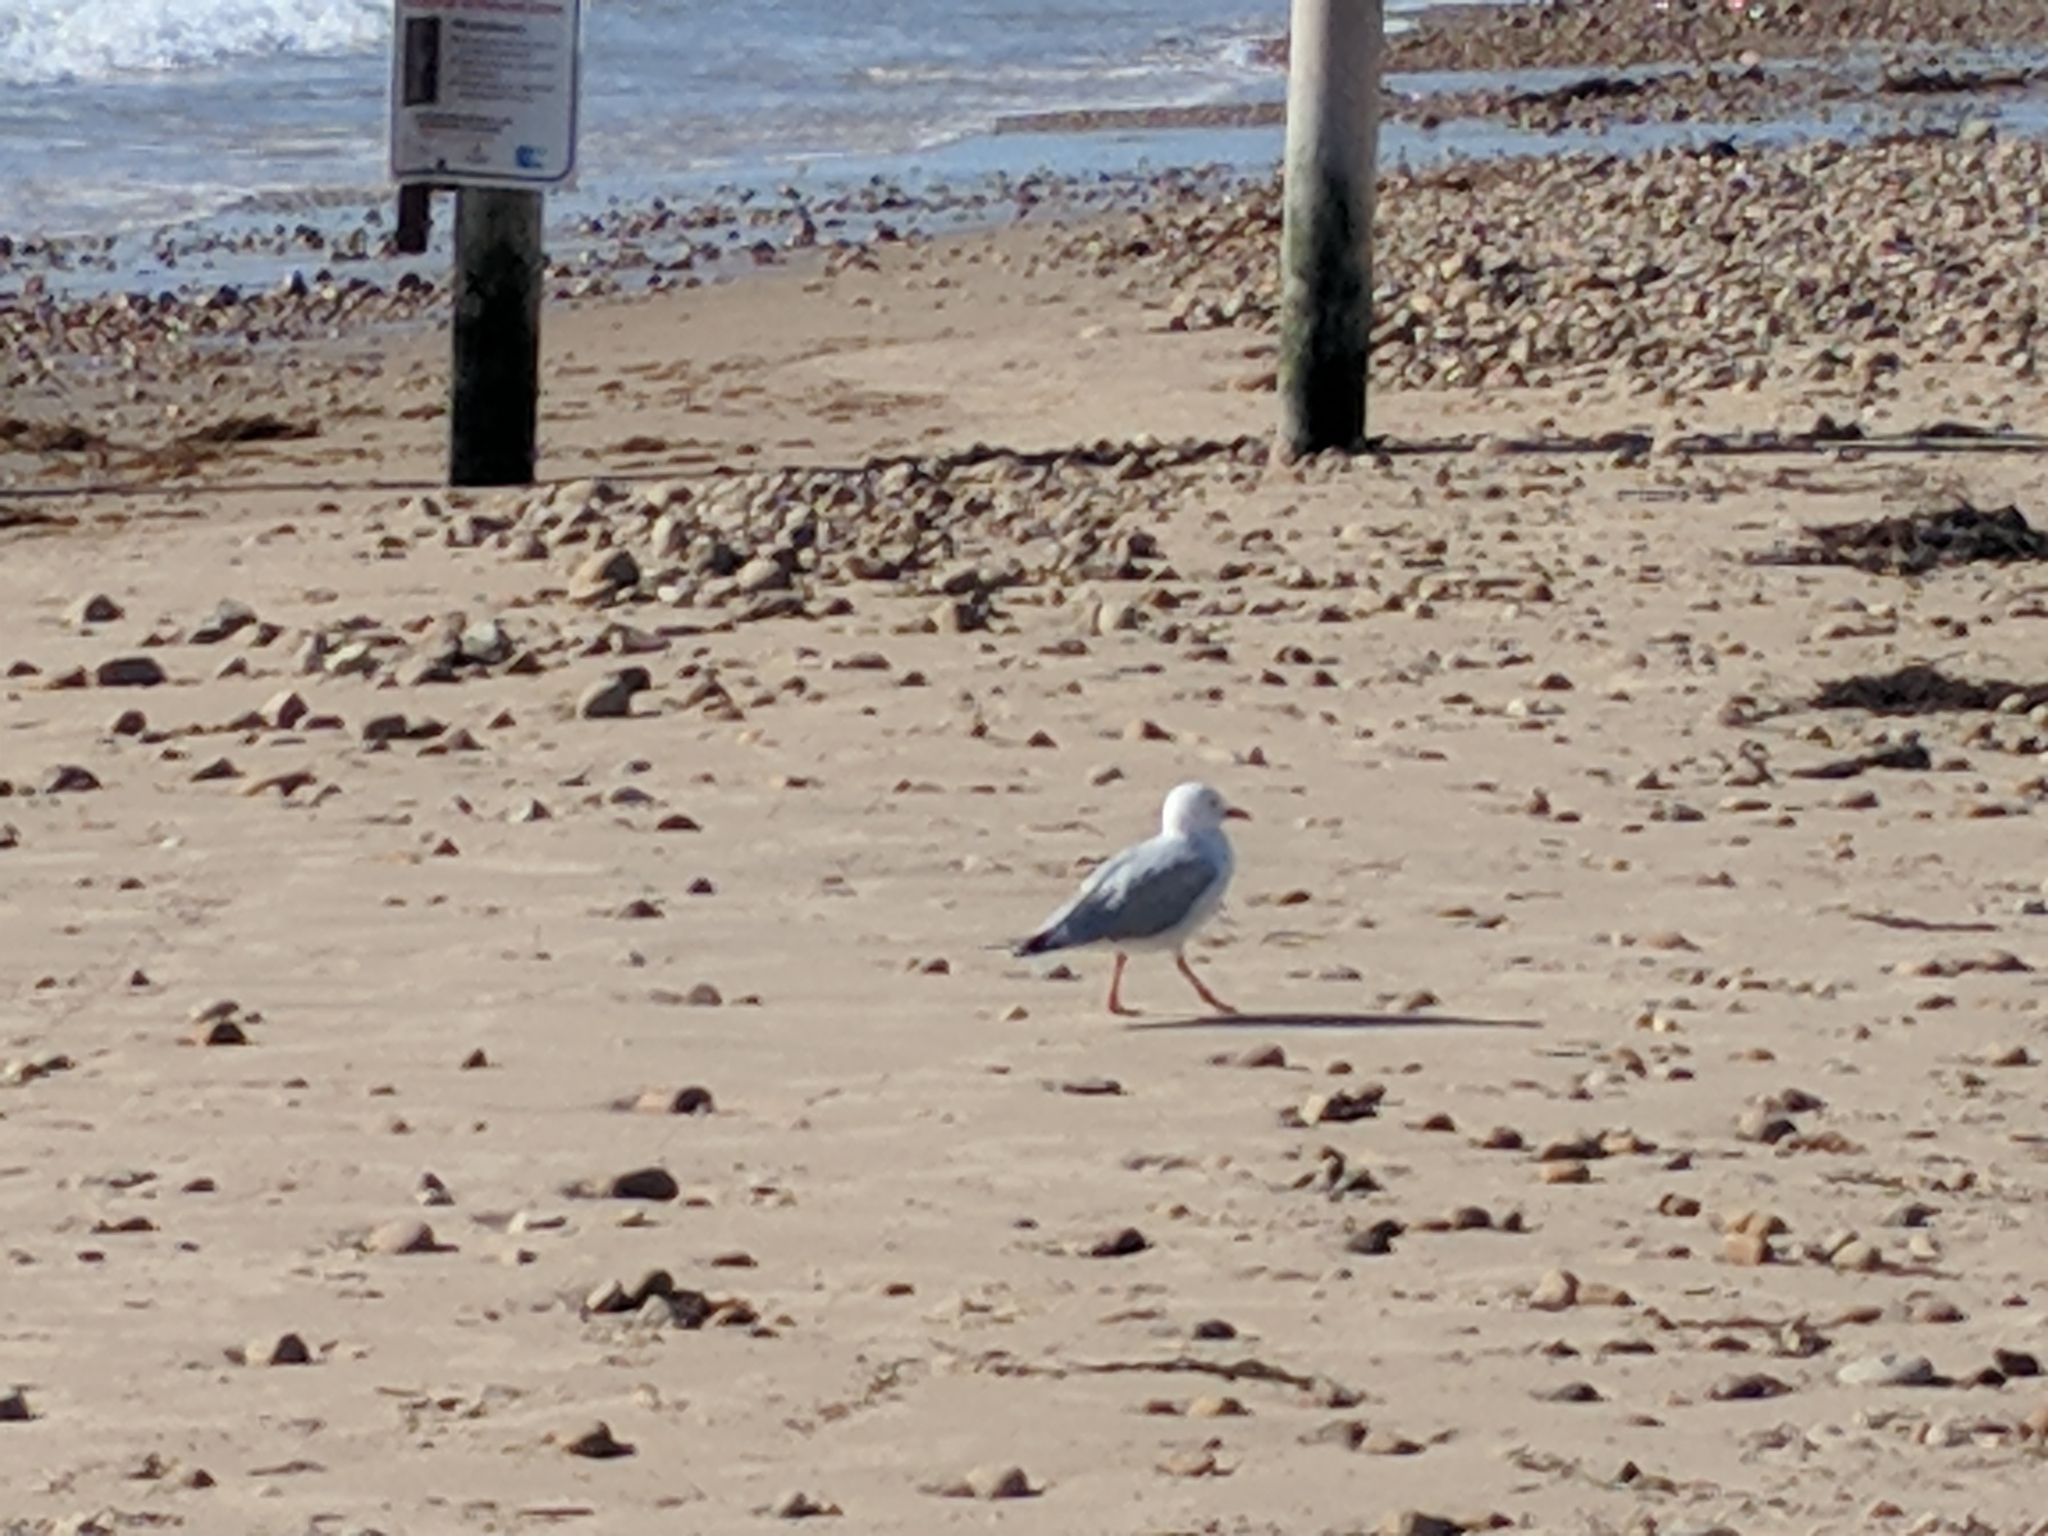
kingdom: Animalia
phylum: Chordata
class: Aves
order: Charadriiformes
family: Laridae
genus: Chroicocephalus
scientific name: Chroicocephalus novaehollandiae
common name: Silver gull
